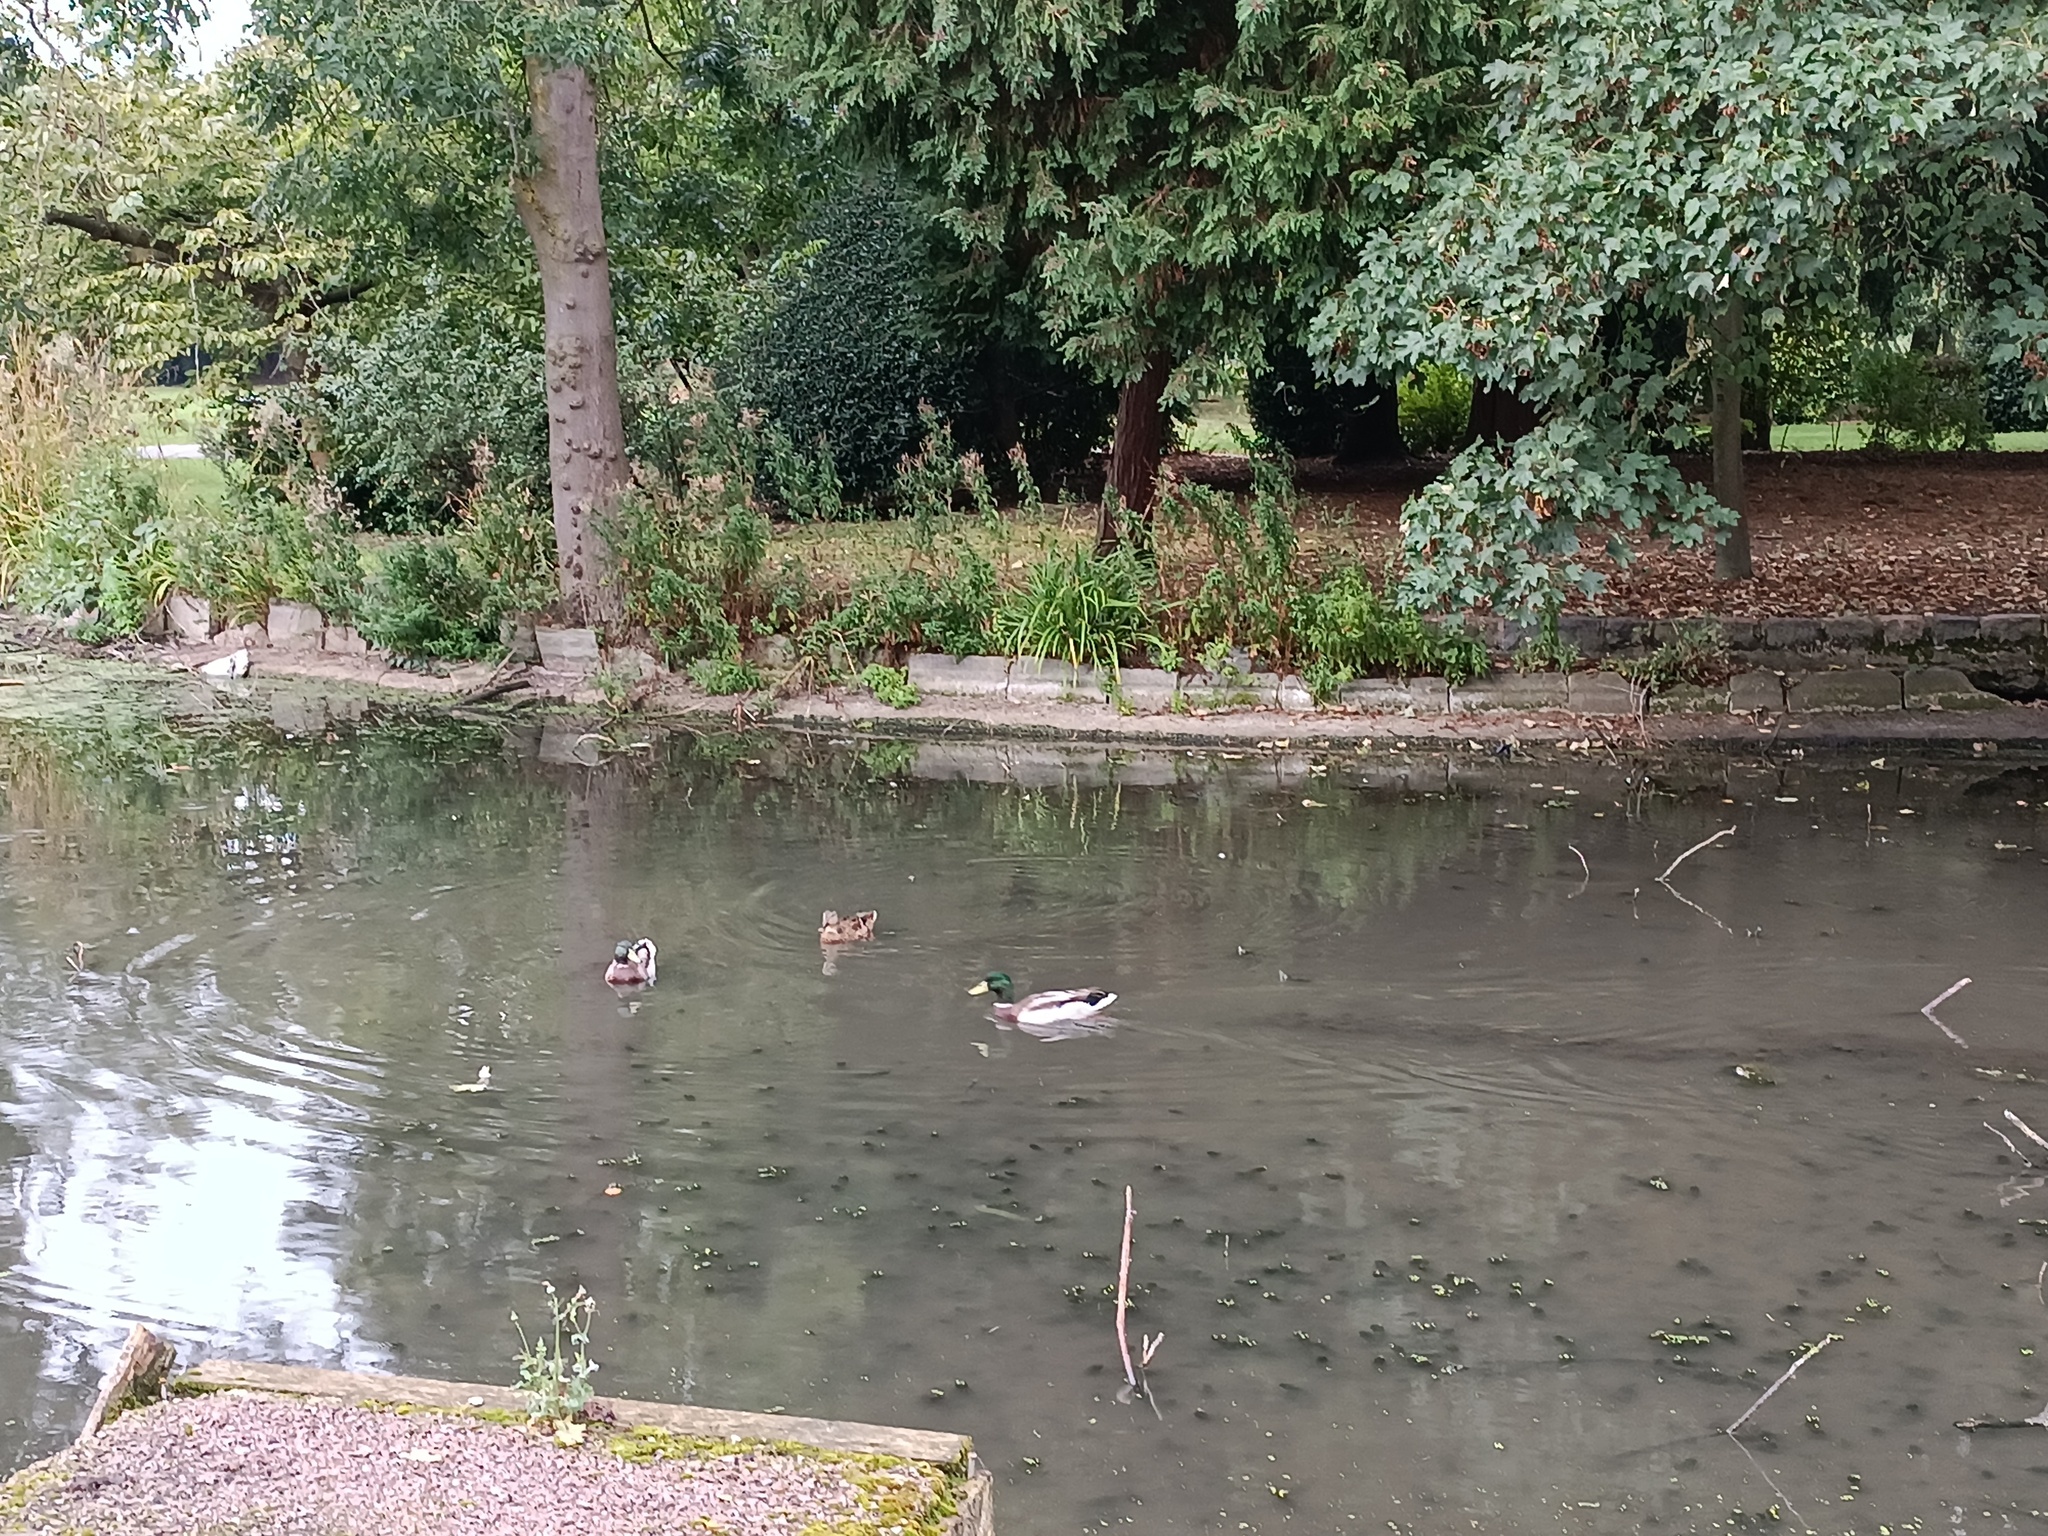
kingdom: Animalia
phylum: Chordata
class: Aves
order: Anseriformes
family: Anatidae
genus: Anas
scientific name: Anas platyrhynchos
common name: Mallard
